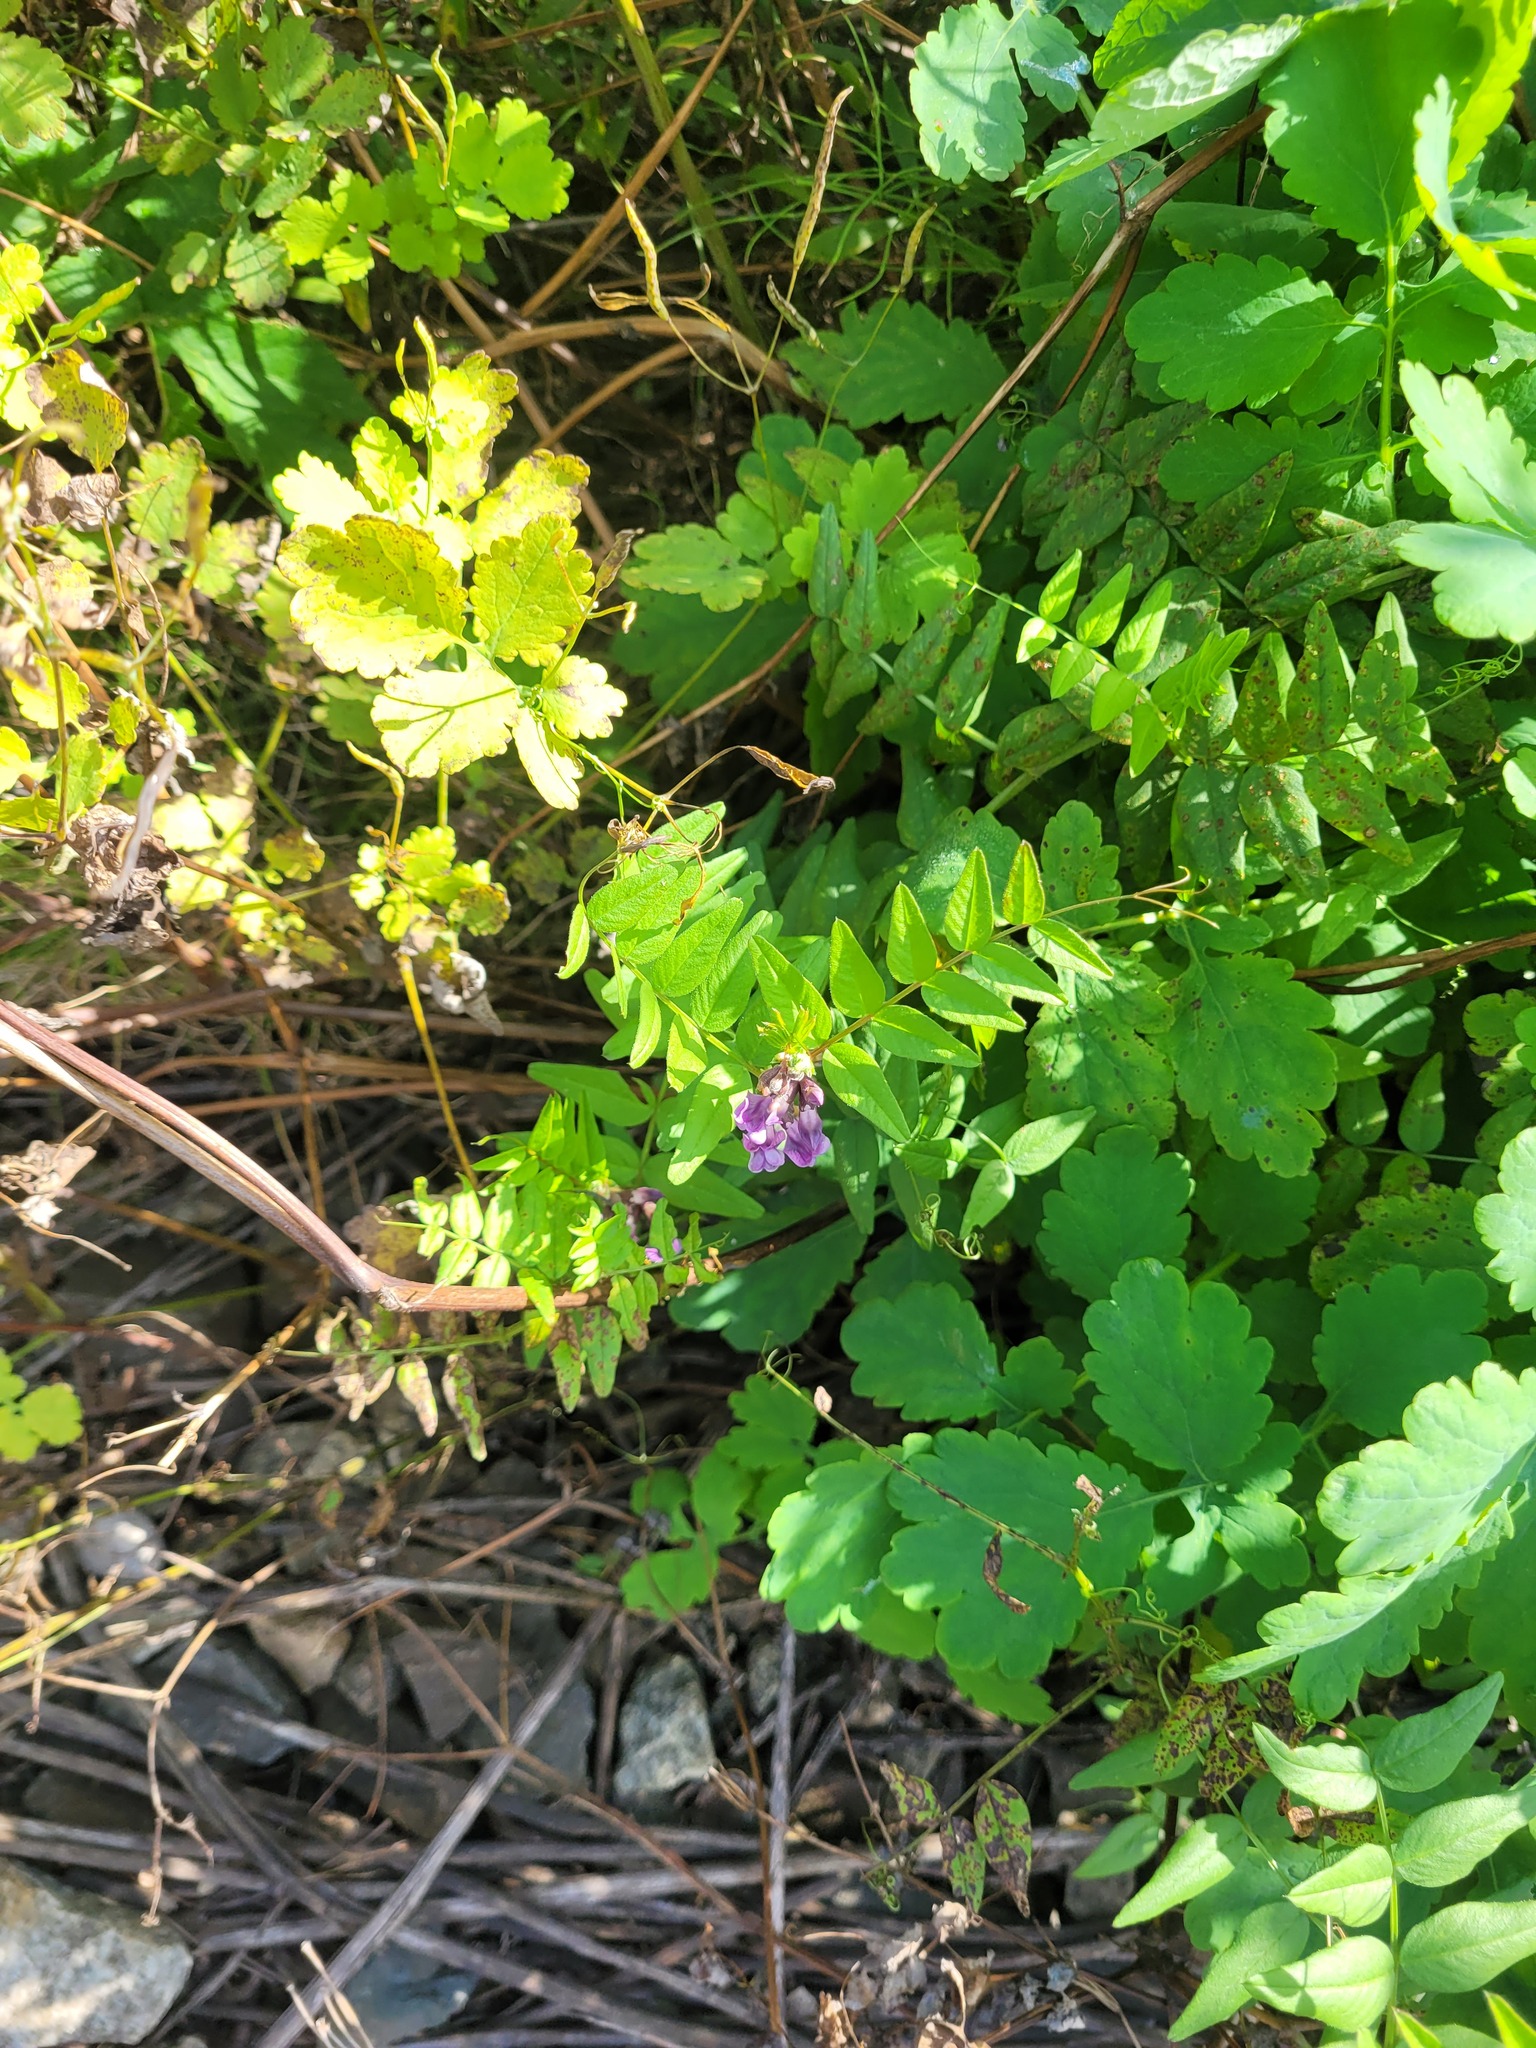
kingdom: Plantae
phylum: Tracheophyta
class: Magnoliopsida
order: Fabales
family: Fabaceae
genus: Vicia
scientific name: Vicia sepium
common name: Bush vetch
